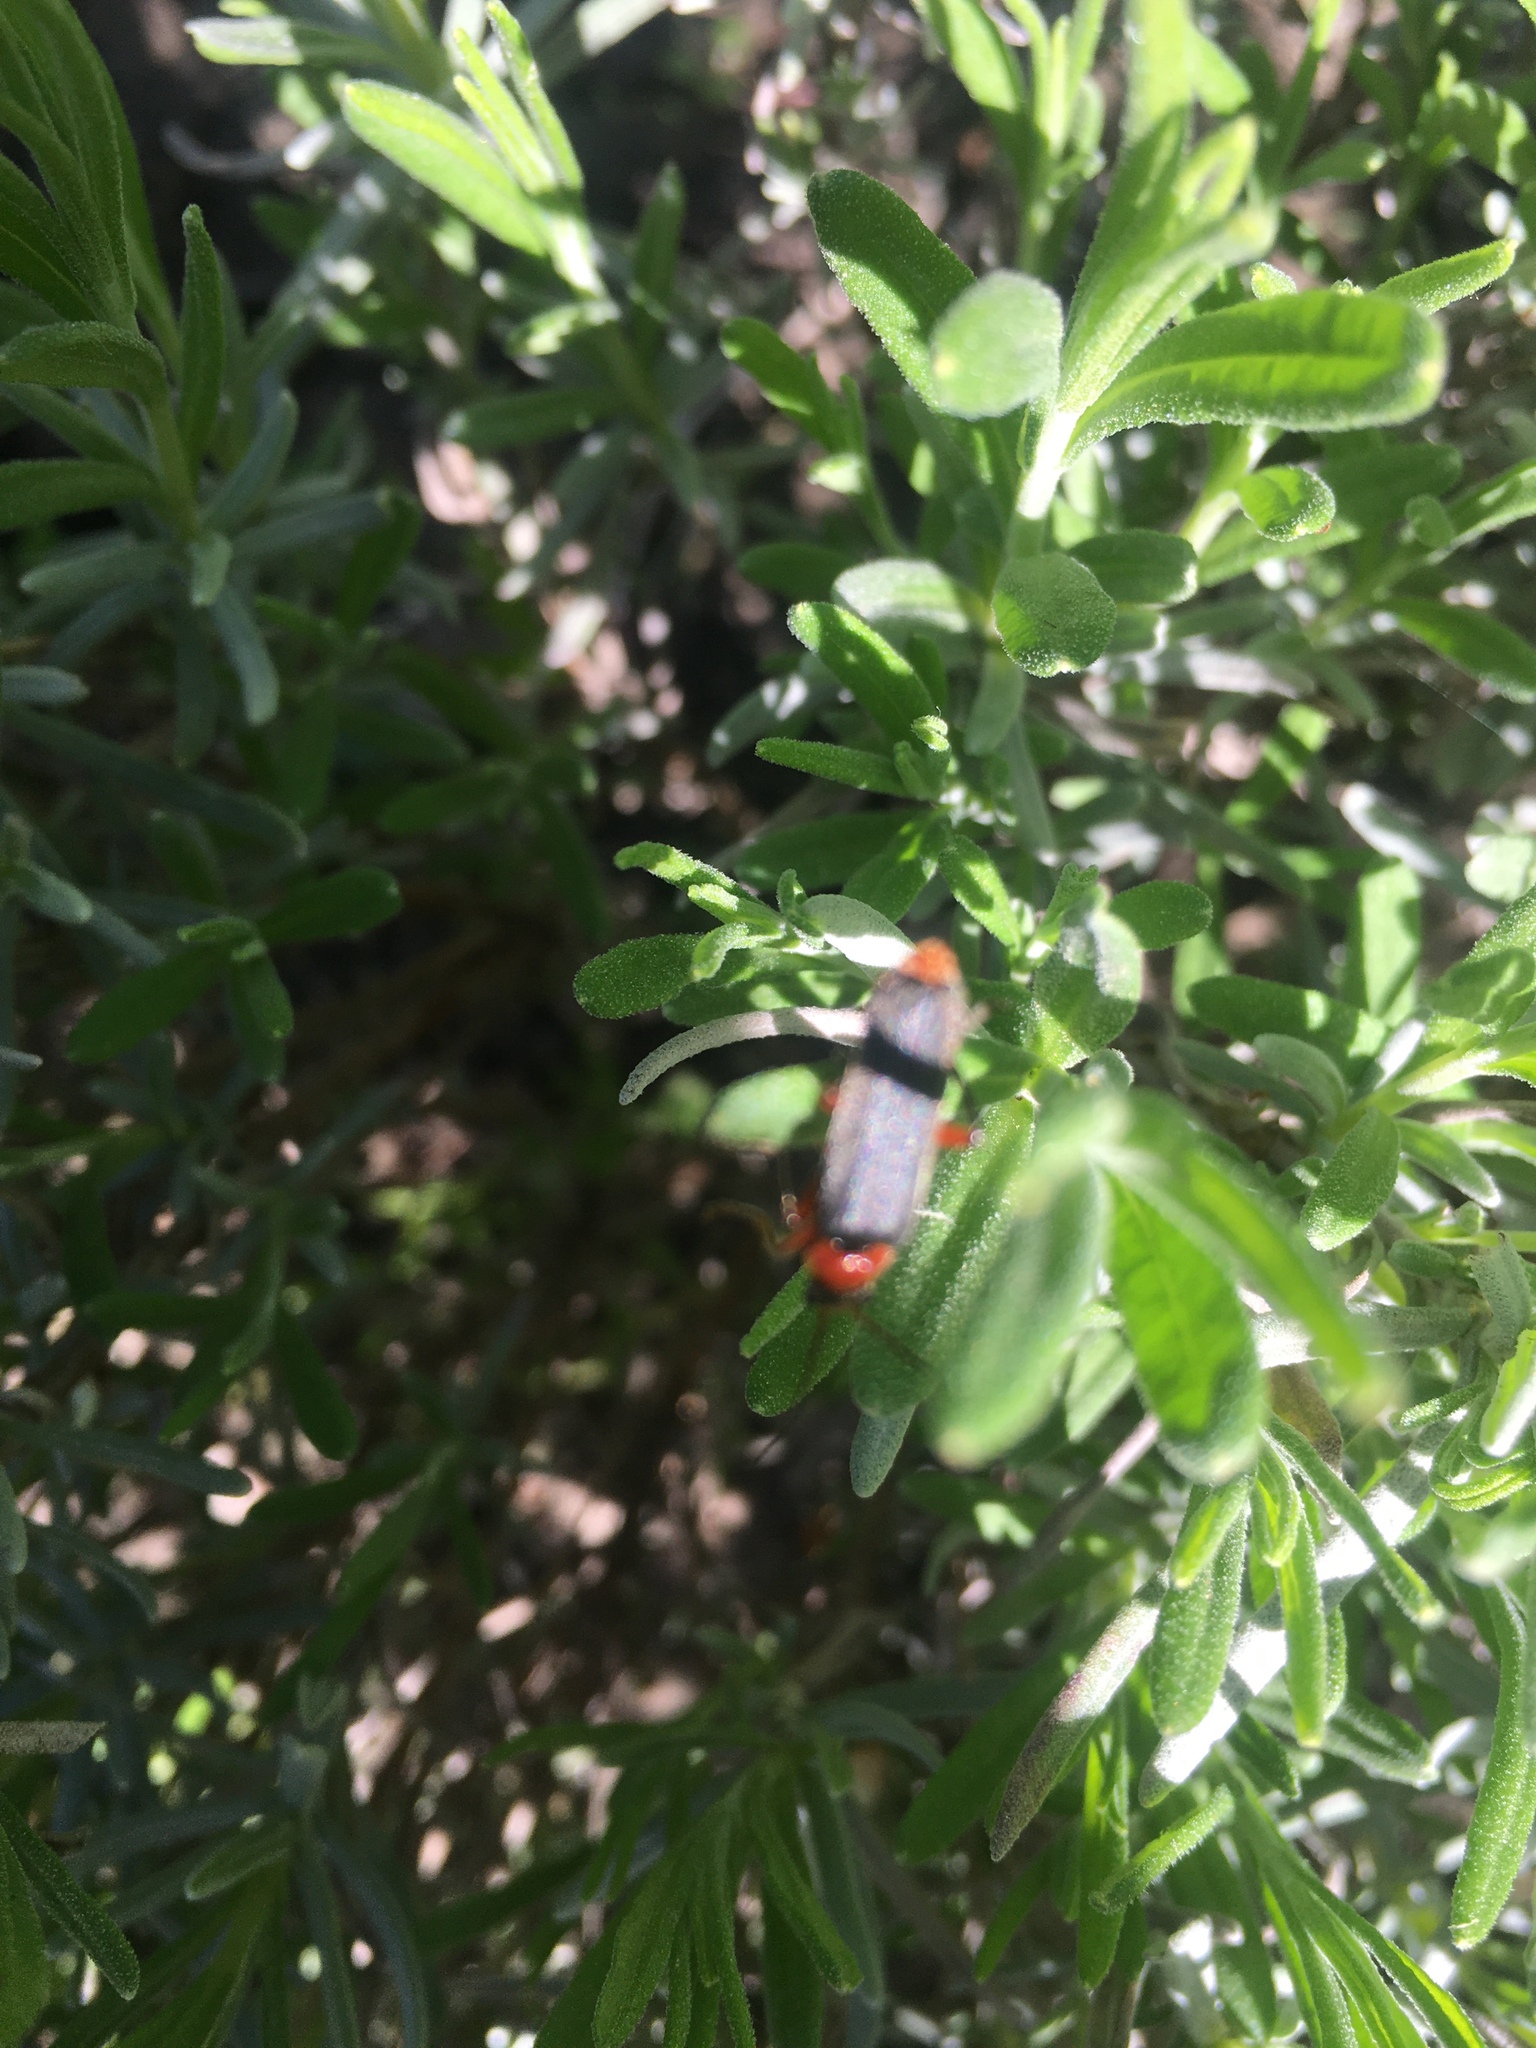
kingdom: Animalia
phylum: Arthropoda
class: Insecta
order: Coleoptera
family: Cantharidae
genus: Cantharis
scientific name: Cantharis pellucida
